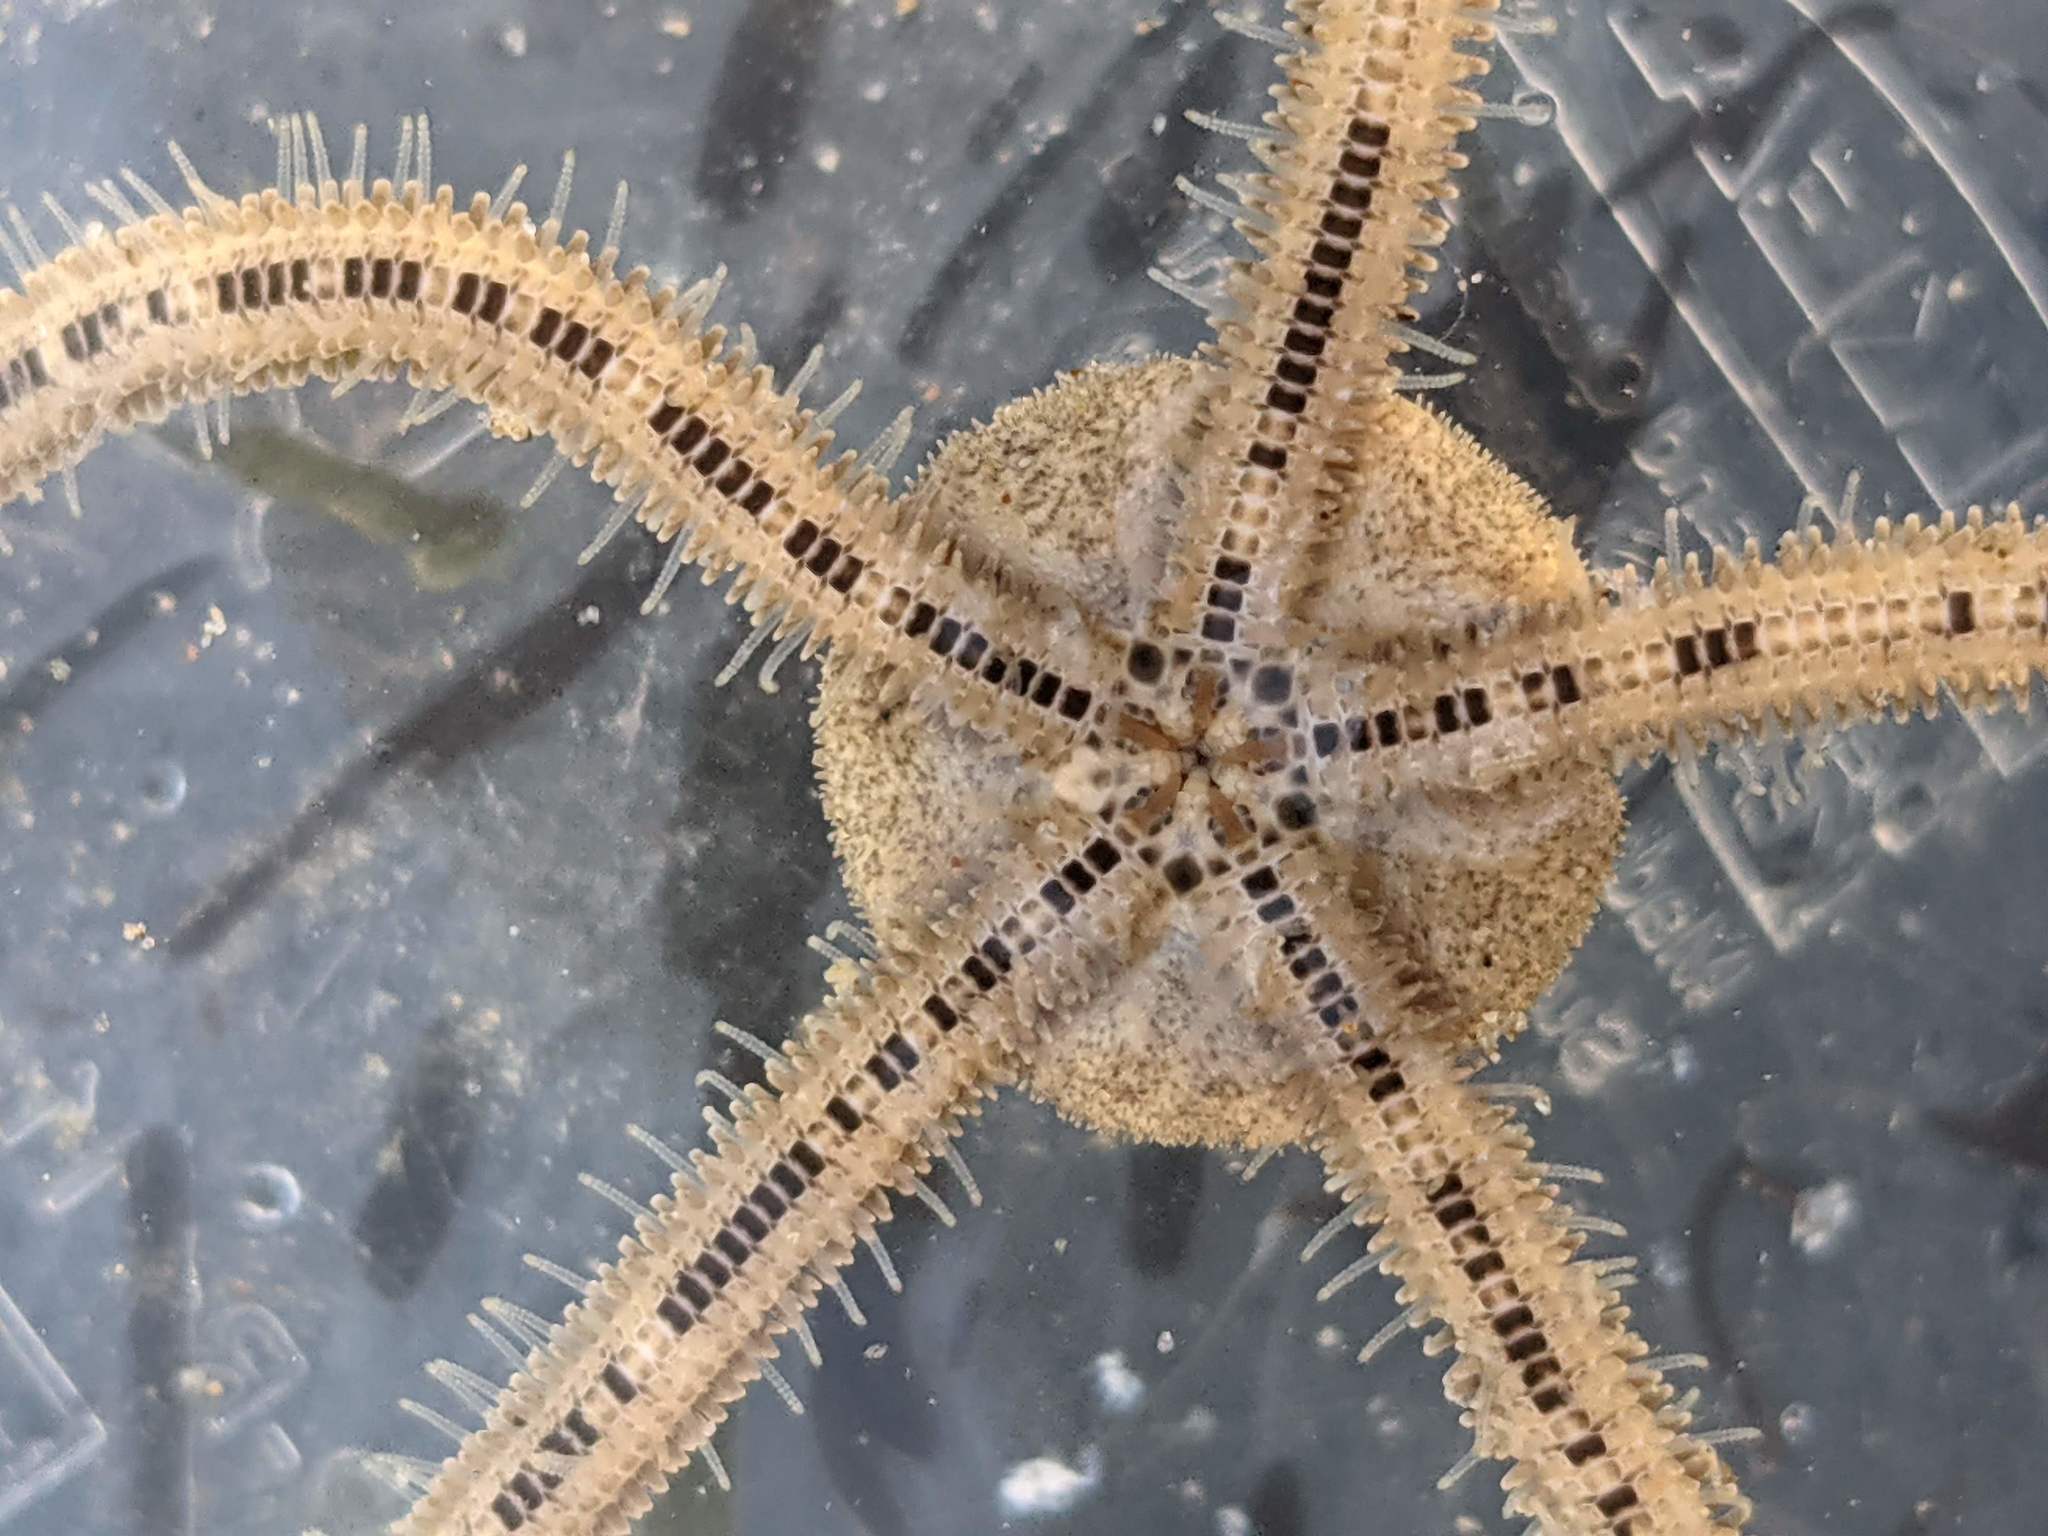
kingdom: Animalia
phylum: Echinodermata
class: Ophiuroidea
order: Amphilepidida
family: Amphiuridae
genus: Amphiodia
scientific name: Amphiodia occidentalis
